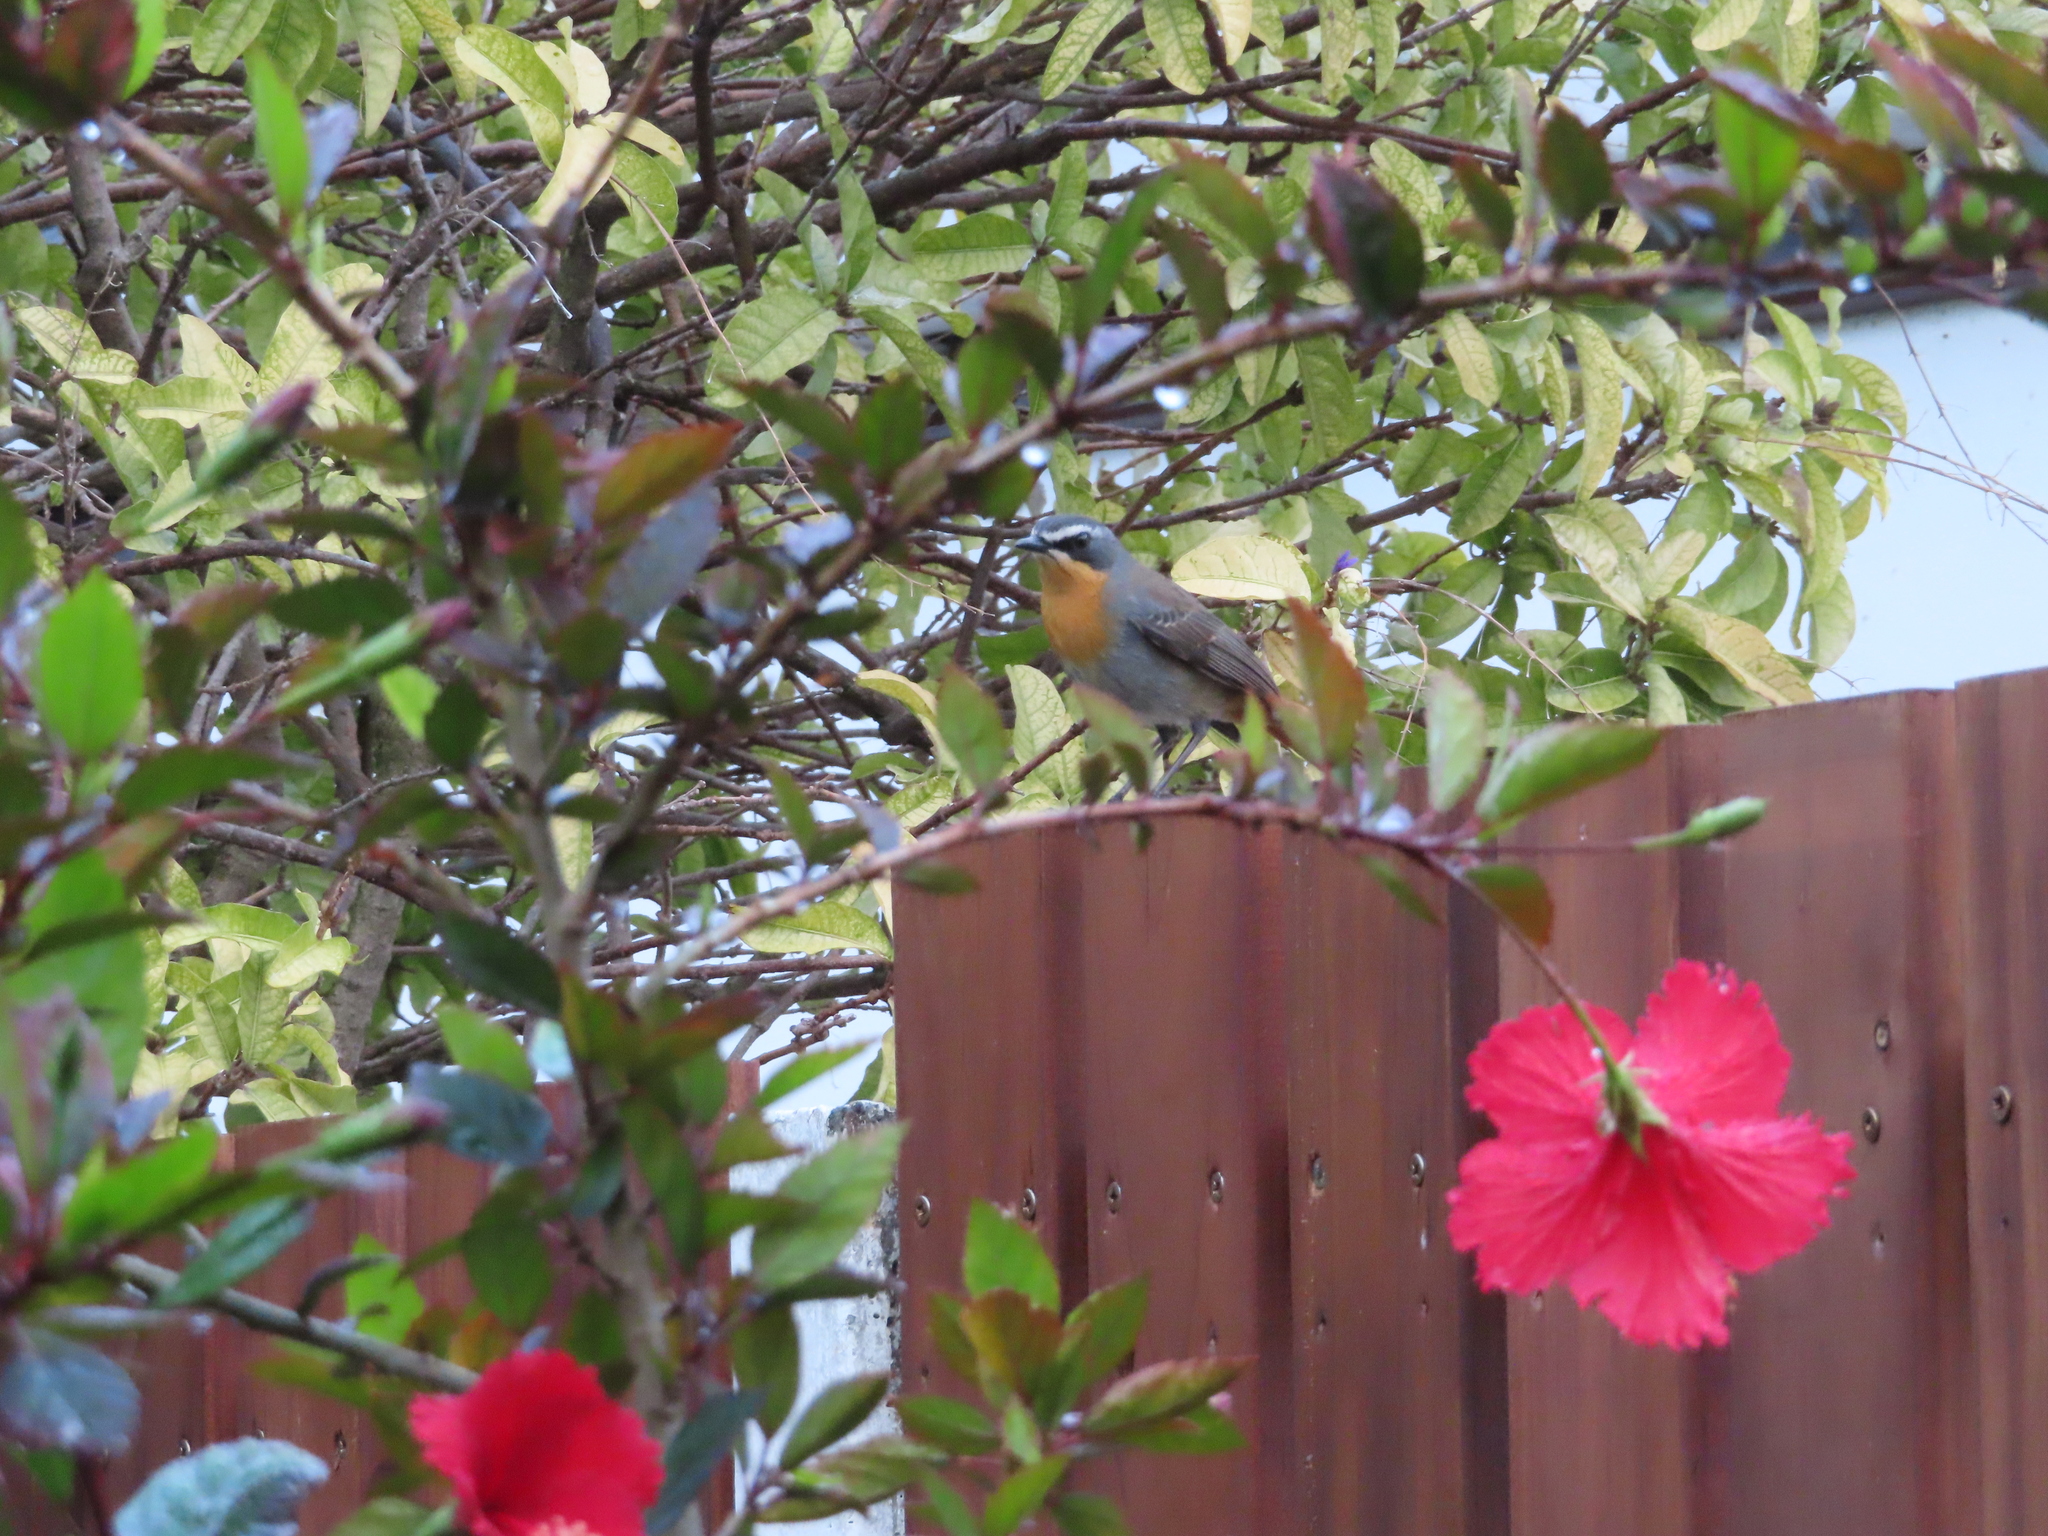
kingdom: Animalia
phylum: Chordata
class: Aves
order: Passeriformes
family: Muscicapidae
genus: Cossypha
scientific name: Cossypha caffra
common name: Cape robin-chat
